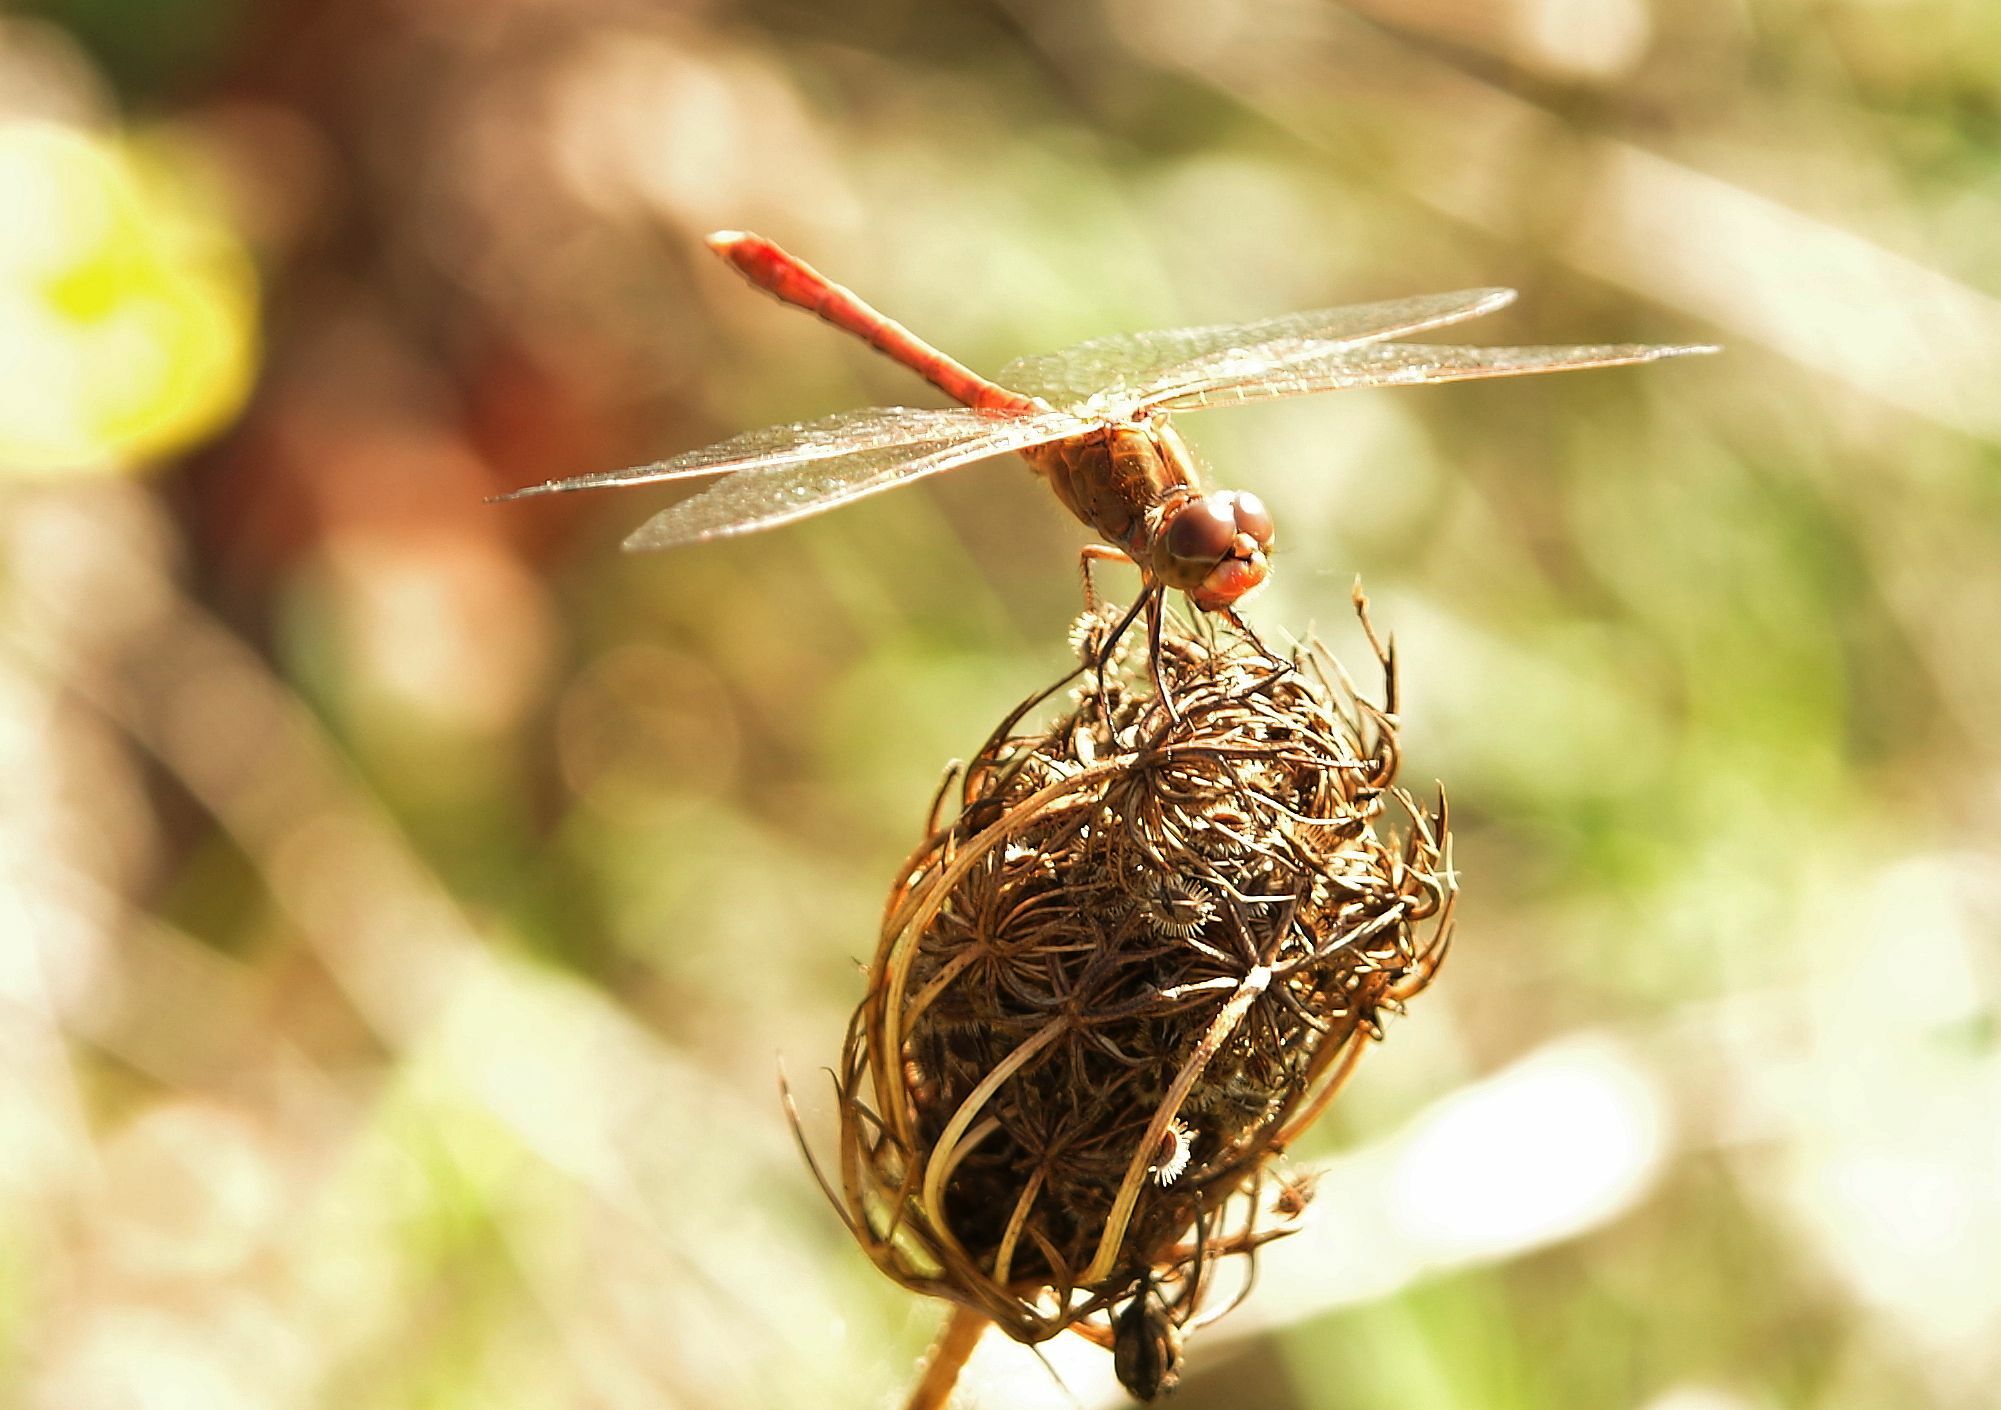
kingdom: Animalia
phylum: Arthropoda
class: Insecta
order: Odonata
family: Libellulidae
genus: Sympetrum
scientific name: Sympetrum meridionale
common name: Southern darter
